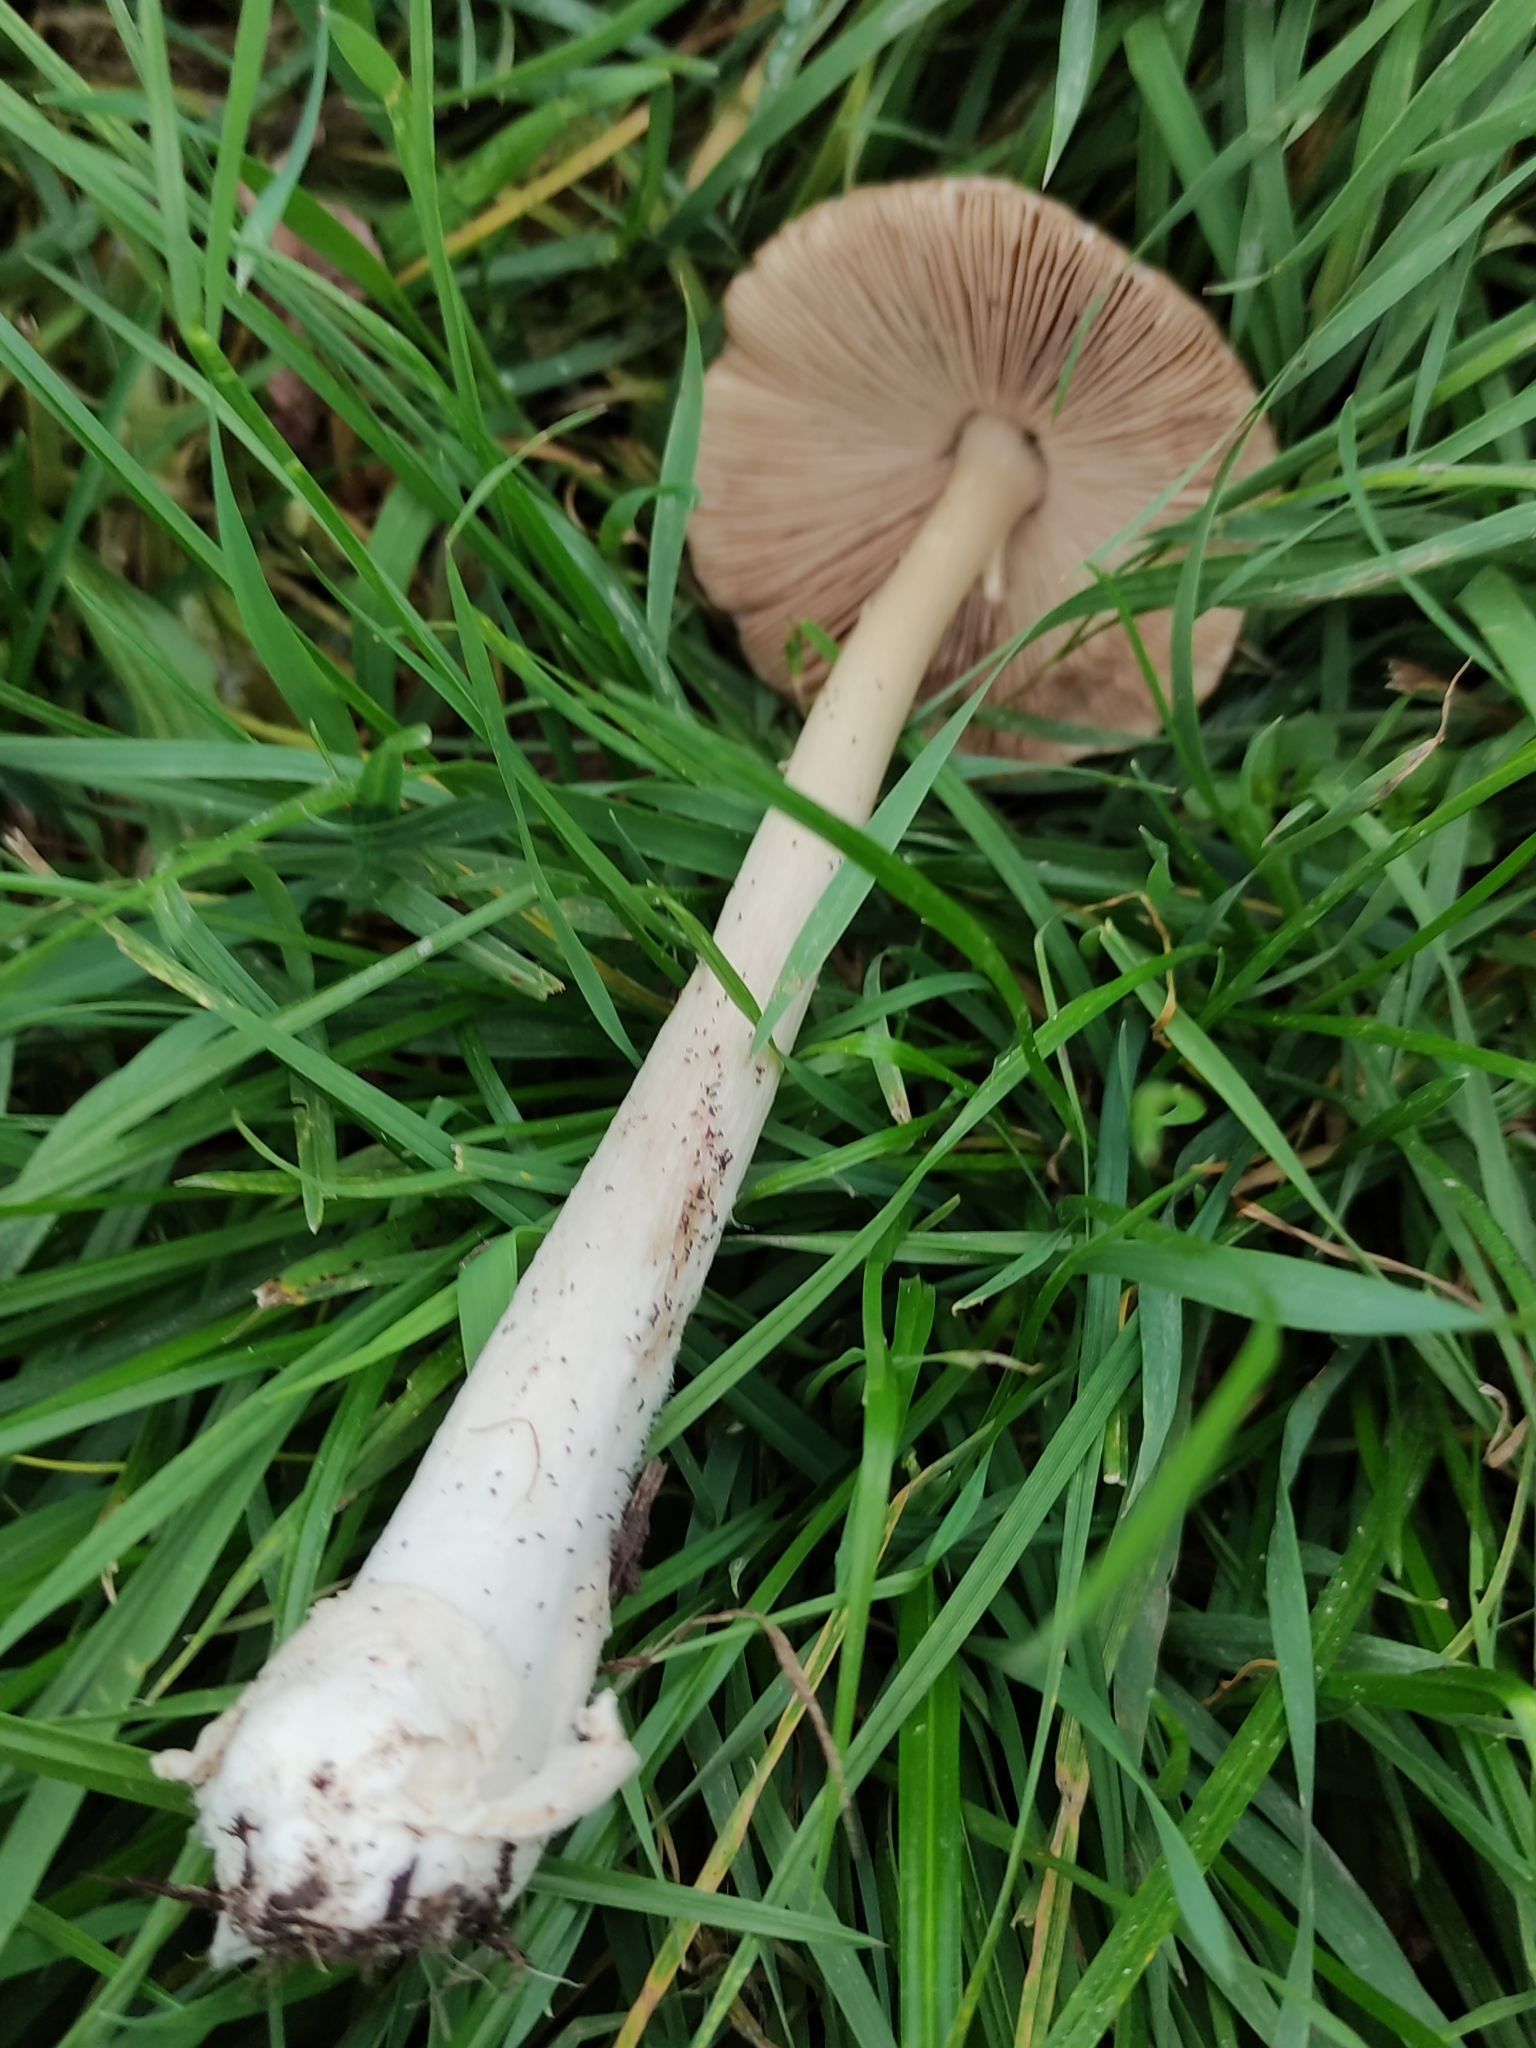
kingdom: Fungi
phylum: Basidiomycota
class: Agaricomycetes
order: Agaricales
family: Pluteaceae
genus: Volvopluteus
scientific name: Volvopluteus gloiocephalus
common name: Stubble rosegill
